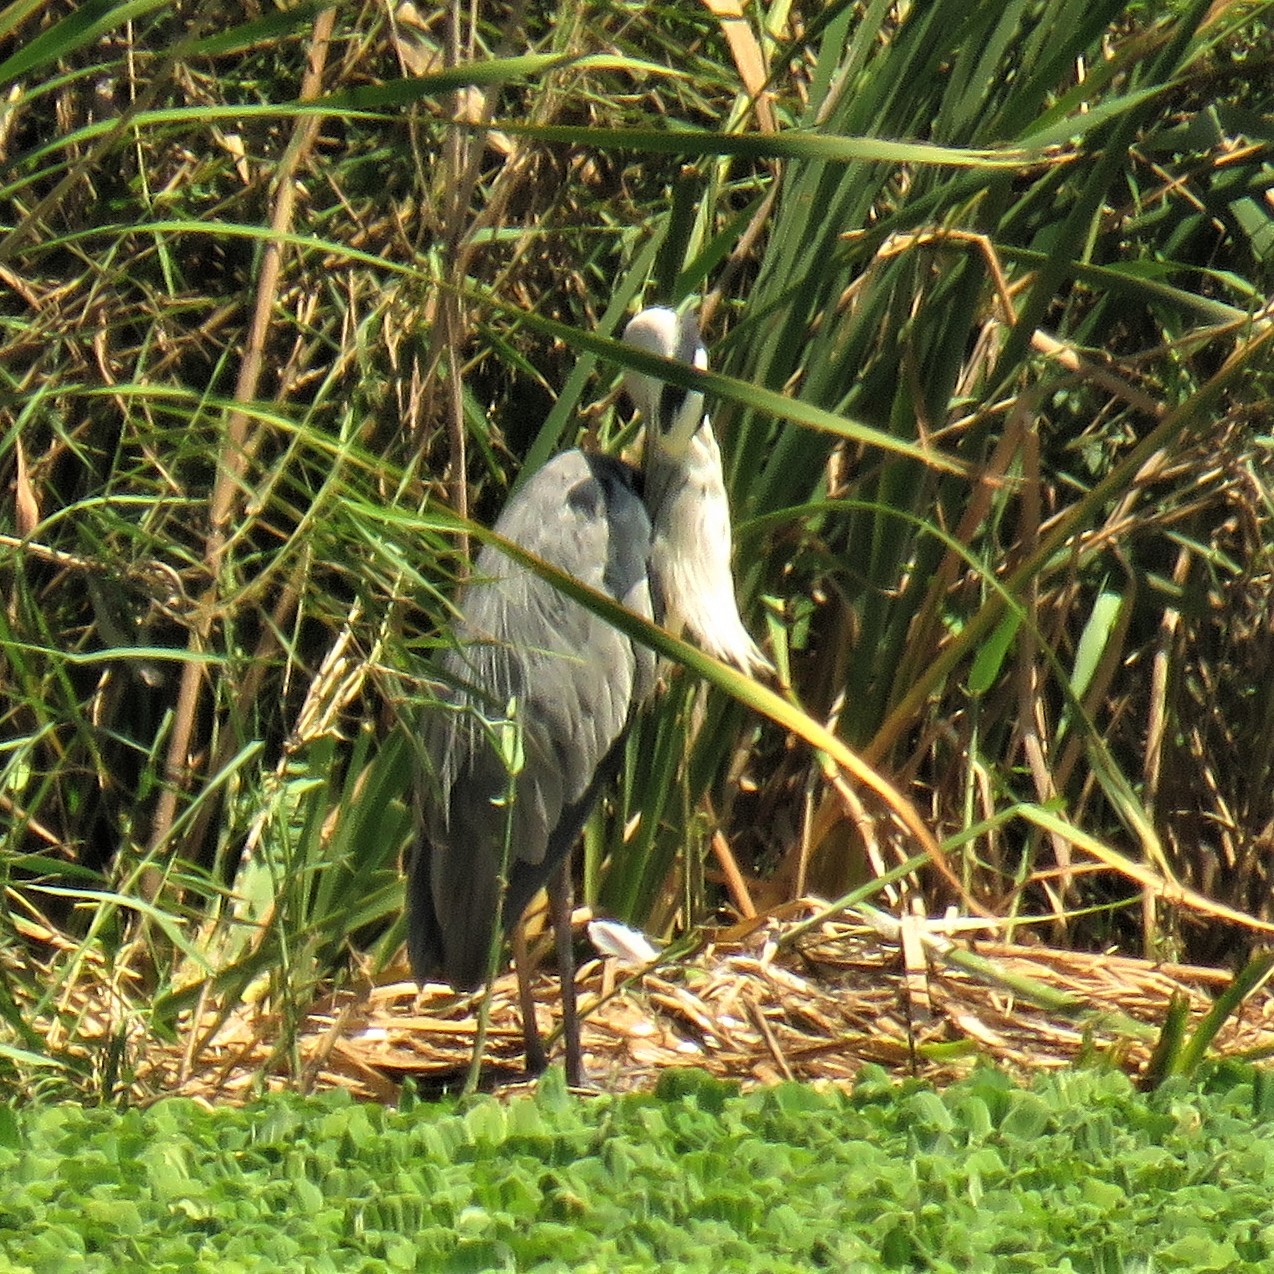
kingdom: Animalia
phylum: Chordata
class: Aves
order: Pelecaniformes
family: Ardeidae
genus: Ardea
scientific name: Ardea cinerea
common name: Grey heron
